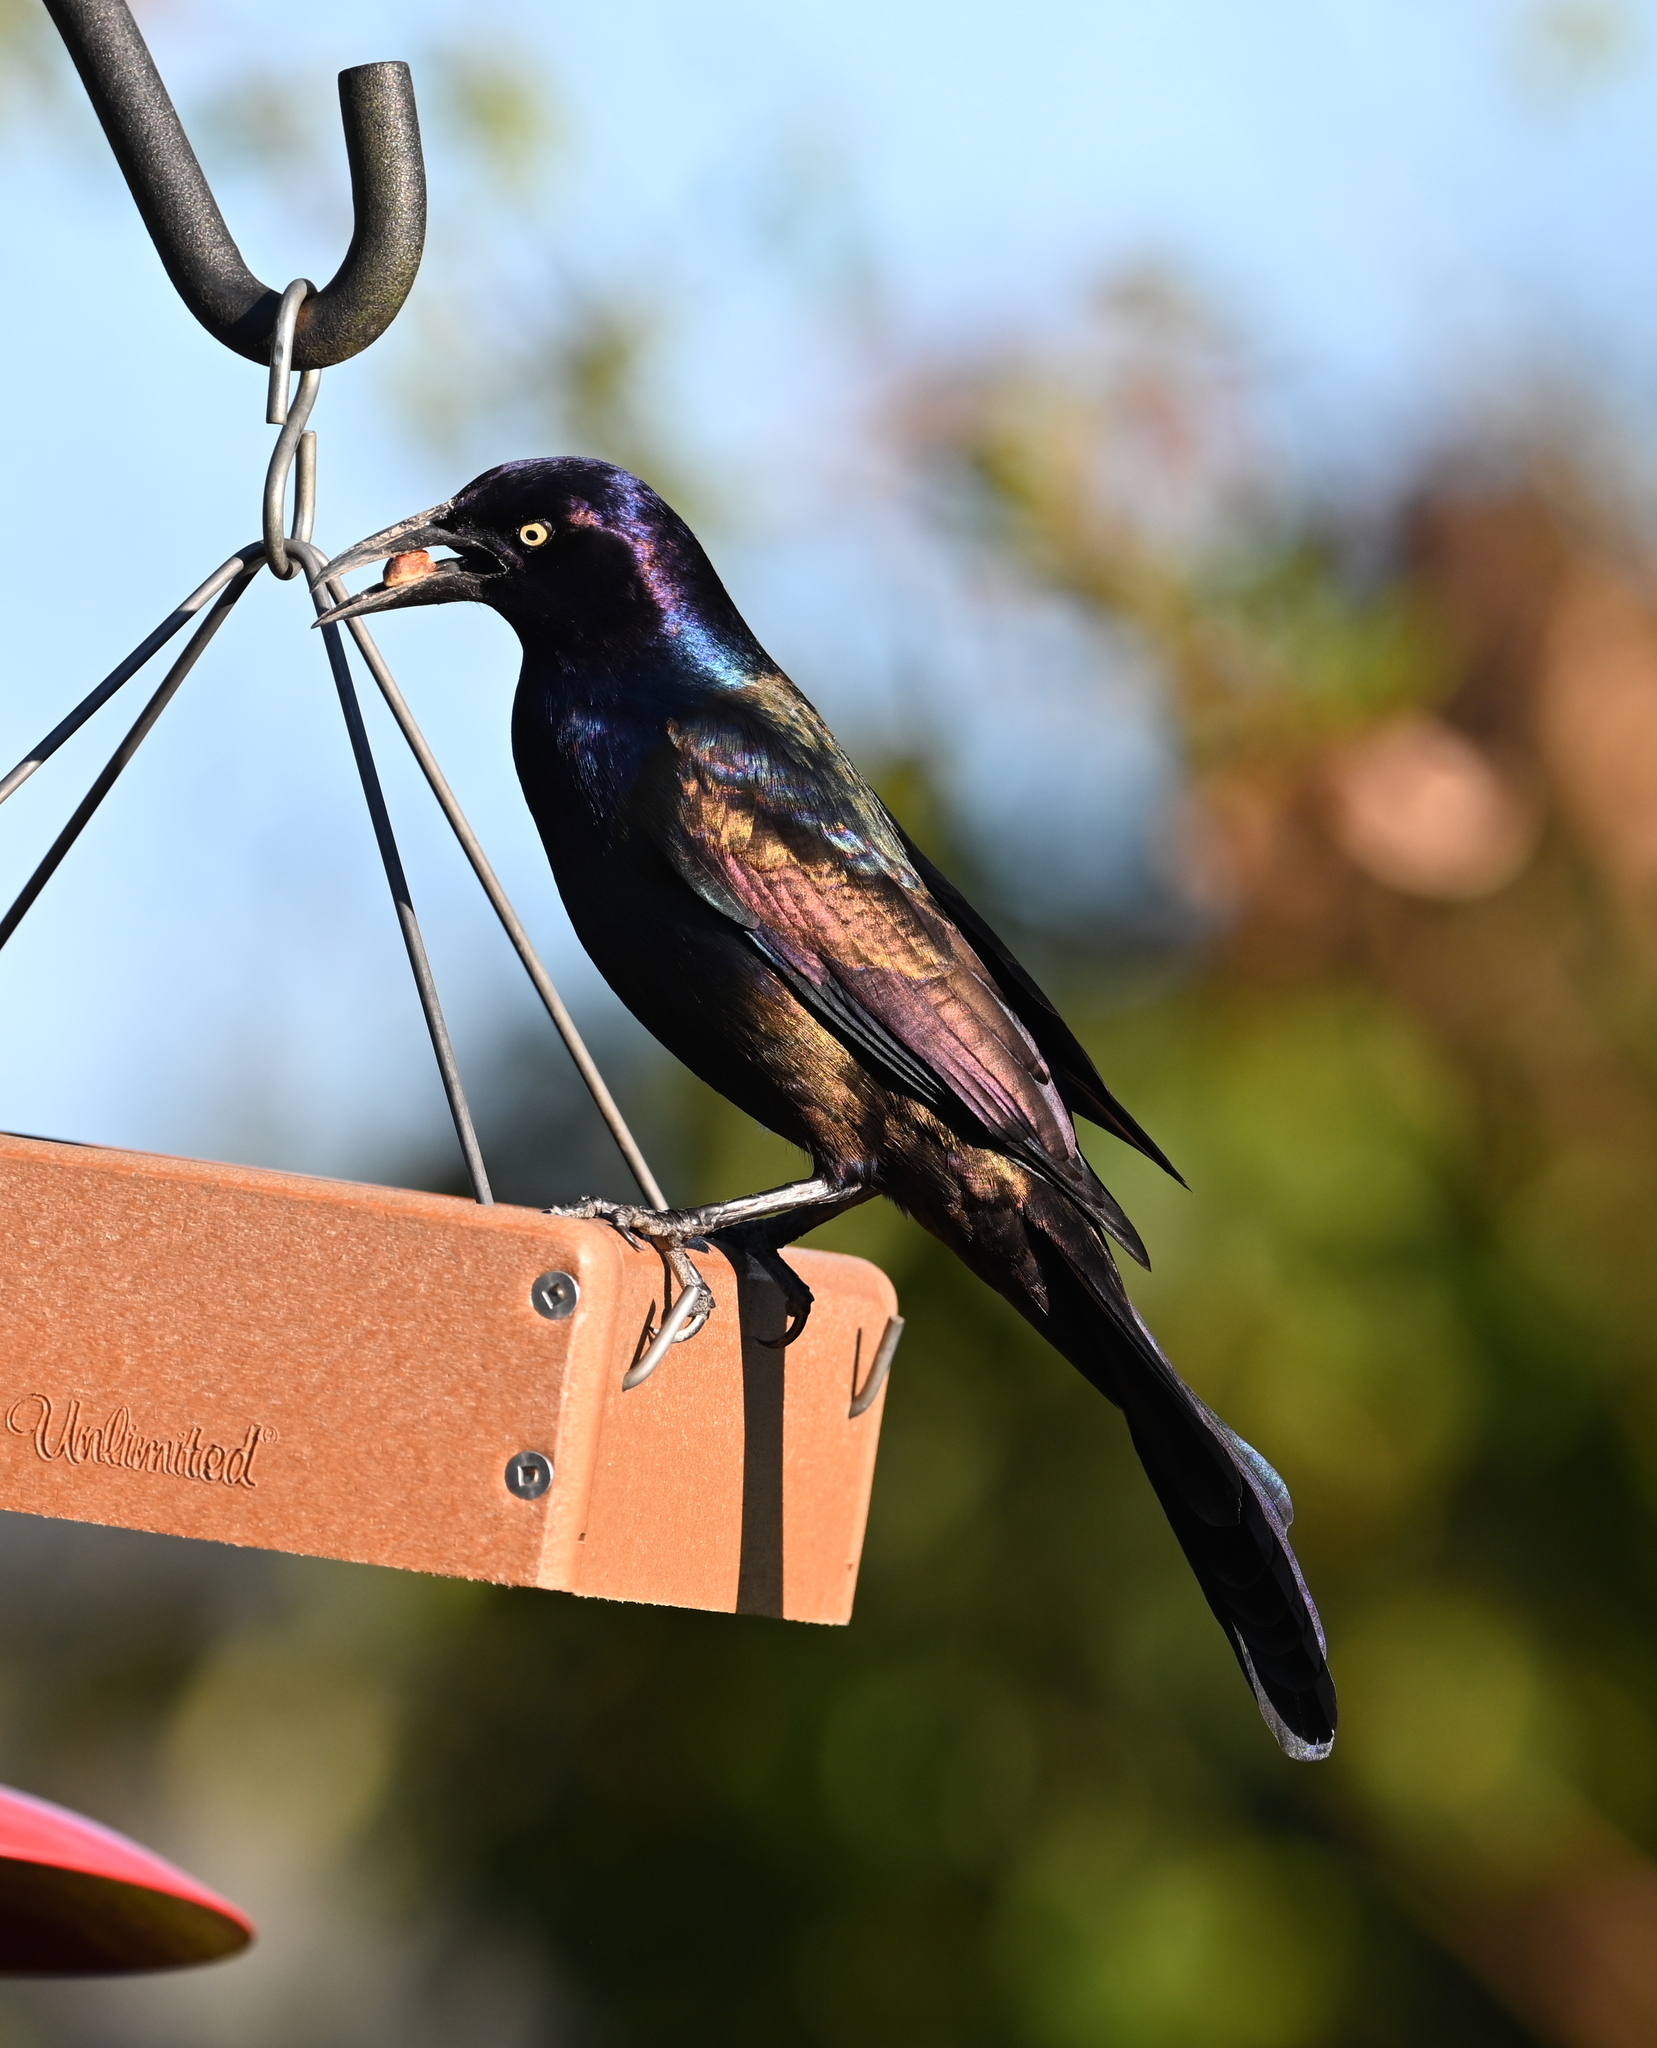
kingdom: Animalia
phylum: Chordata
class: Aves
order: Passeriformes
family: Icteridae
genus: Quiscalus
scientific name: Quiscalus quiscula
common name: Common grackle
